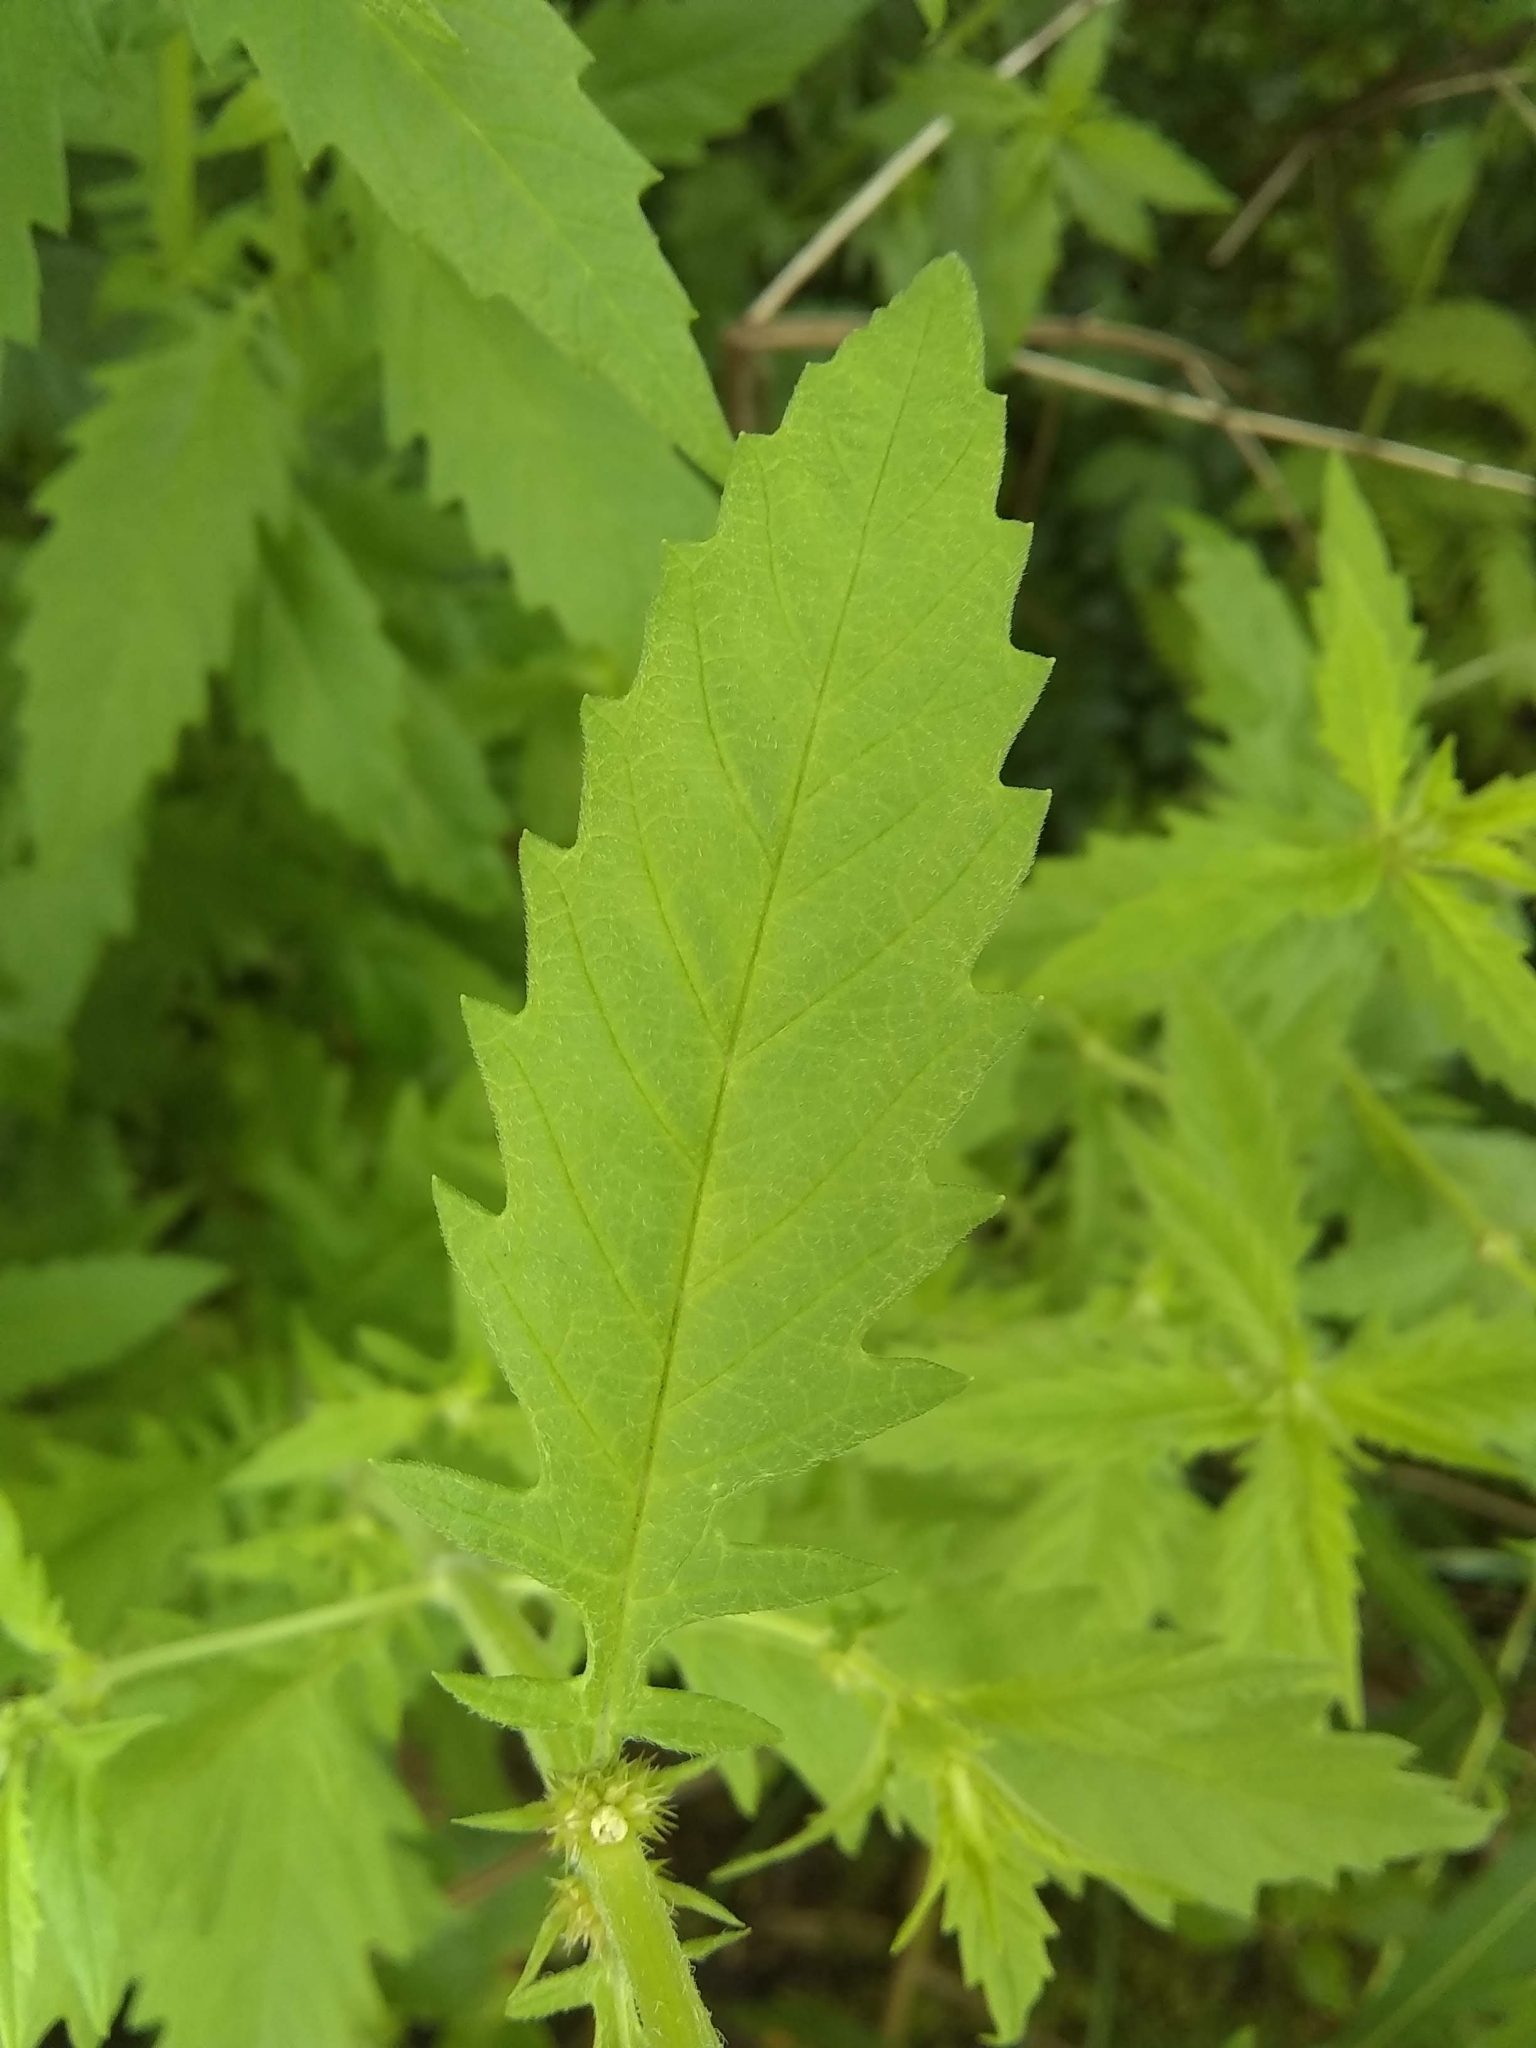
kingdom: Plantae
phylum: Tracheophyta
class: Magnoliopsida
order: Lamiales
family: Lamiaceae
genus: Lycopus
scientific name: Lycopus europaeus
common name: European bugleweed
